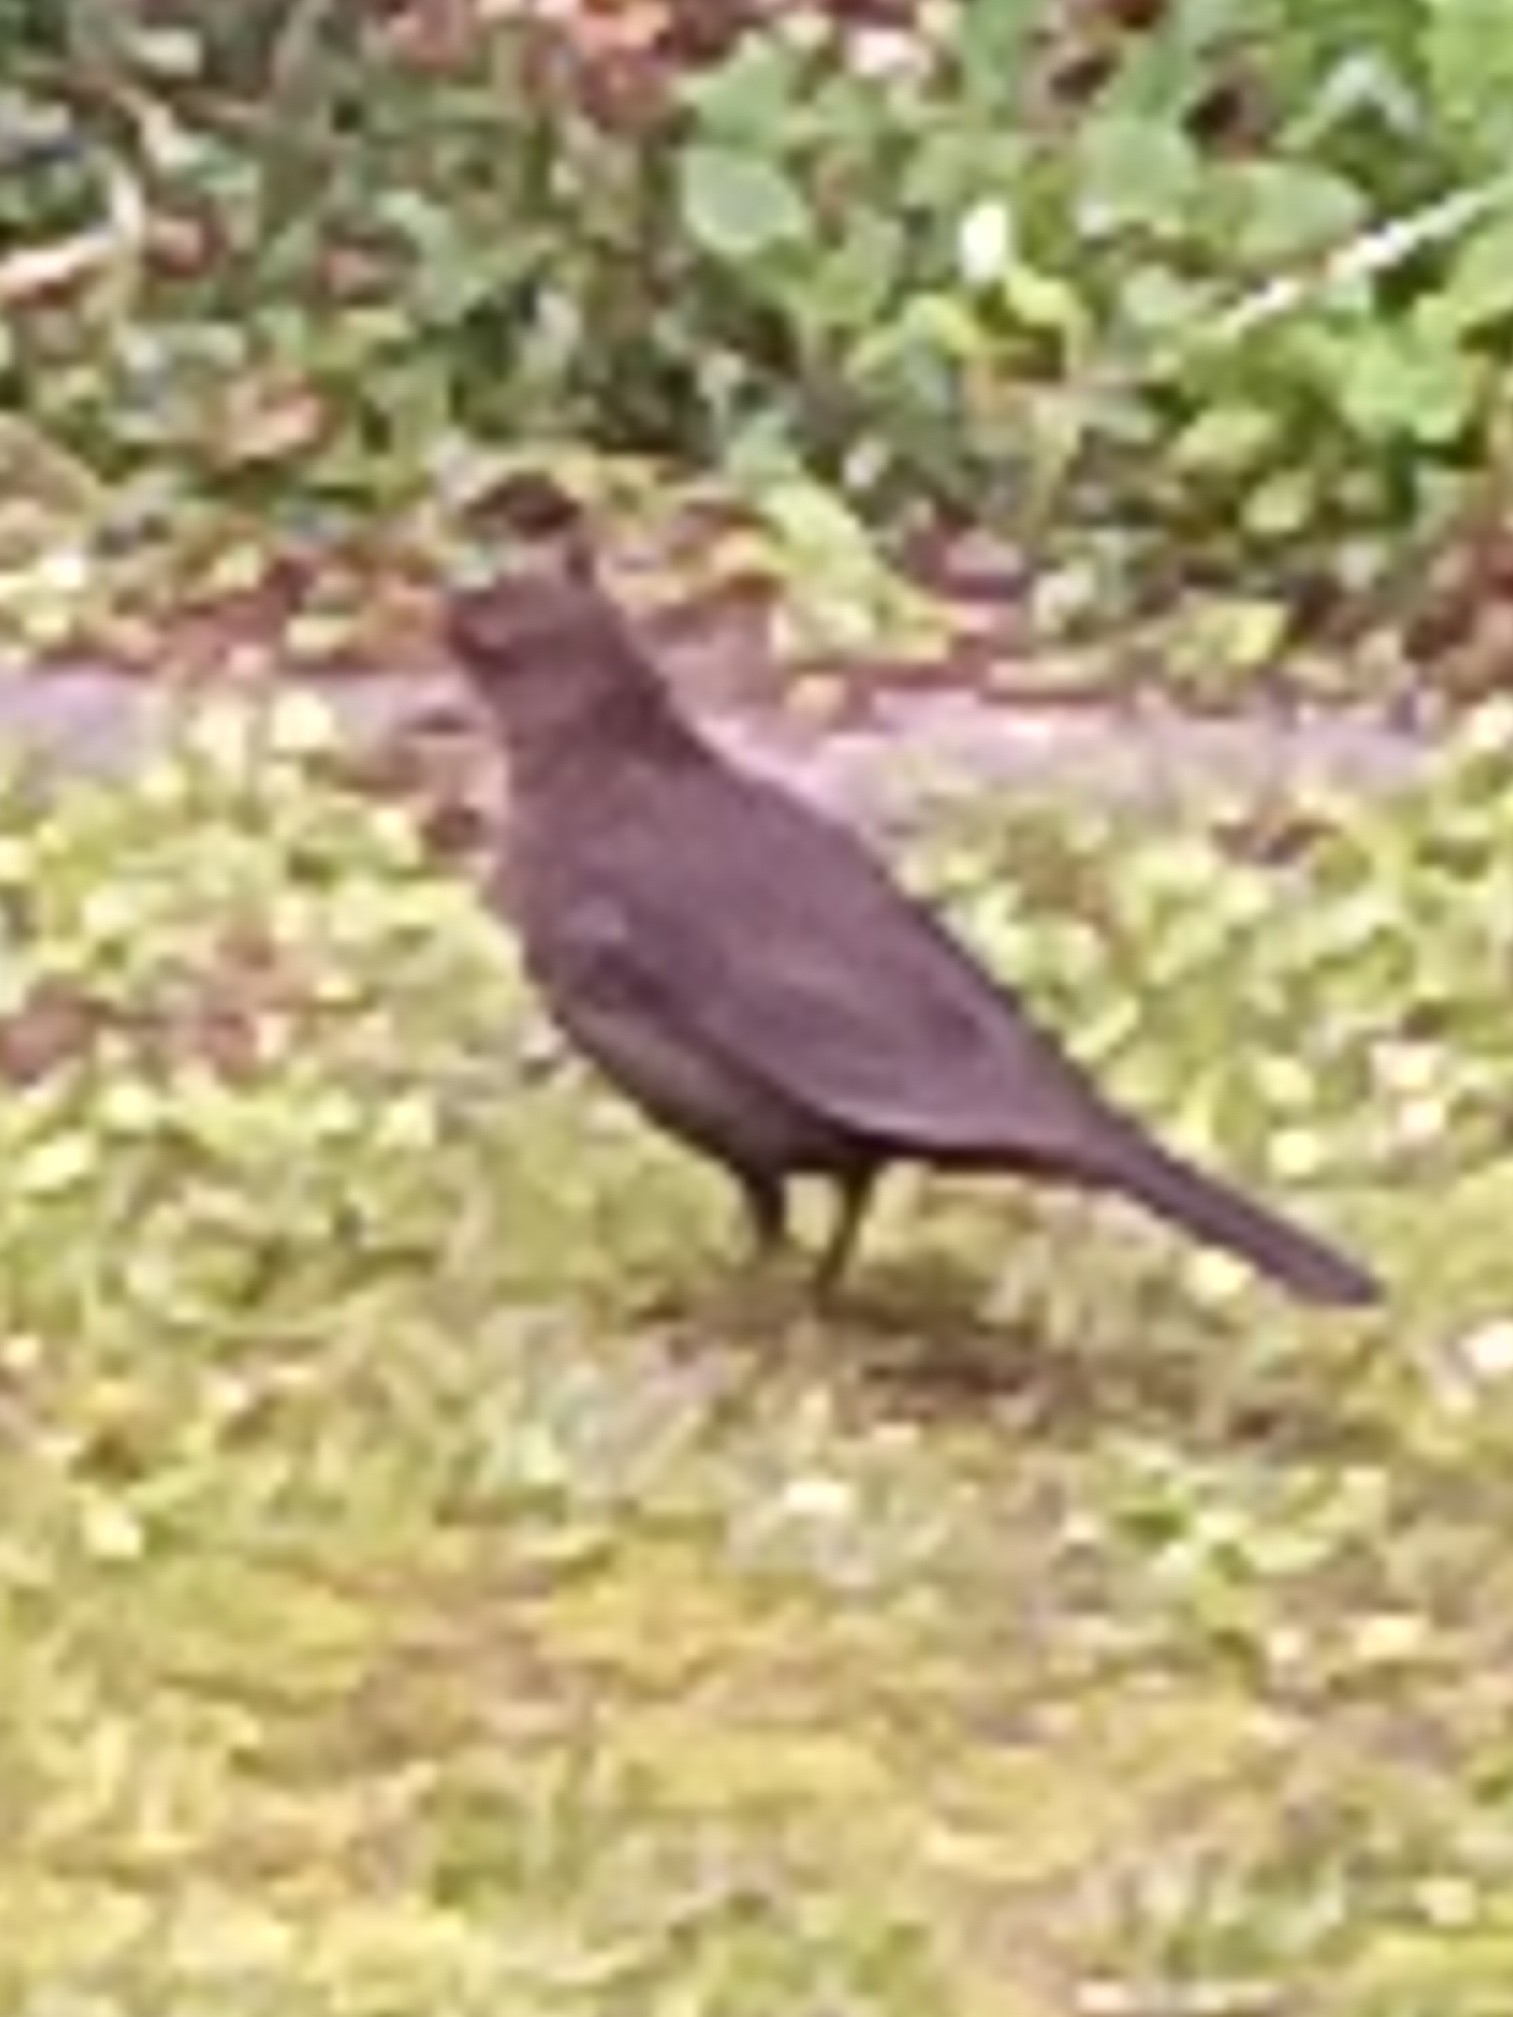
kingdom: Animalia
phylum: Chordata
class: Aves
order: Passeriformes
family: Turdidae
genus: Turdus
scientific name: Turdus merula
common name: Common blackbird
